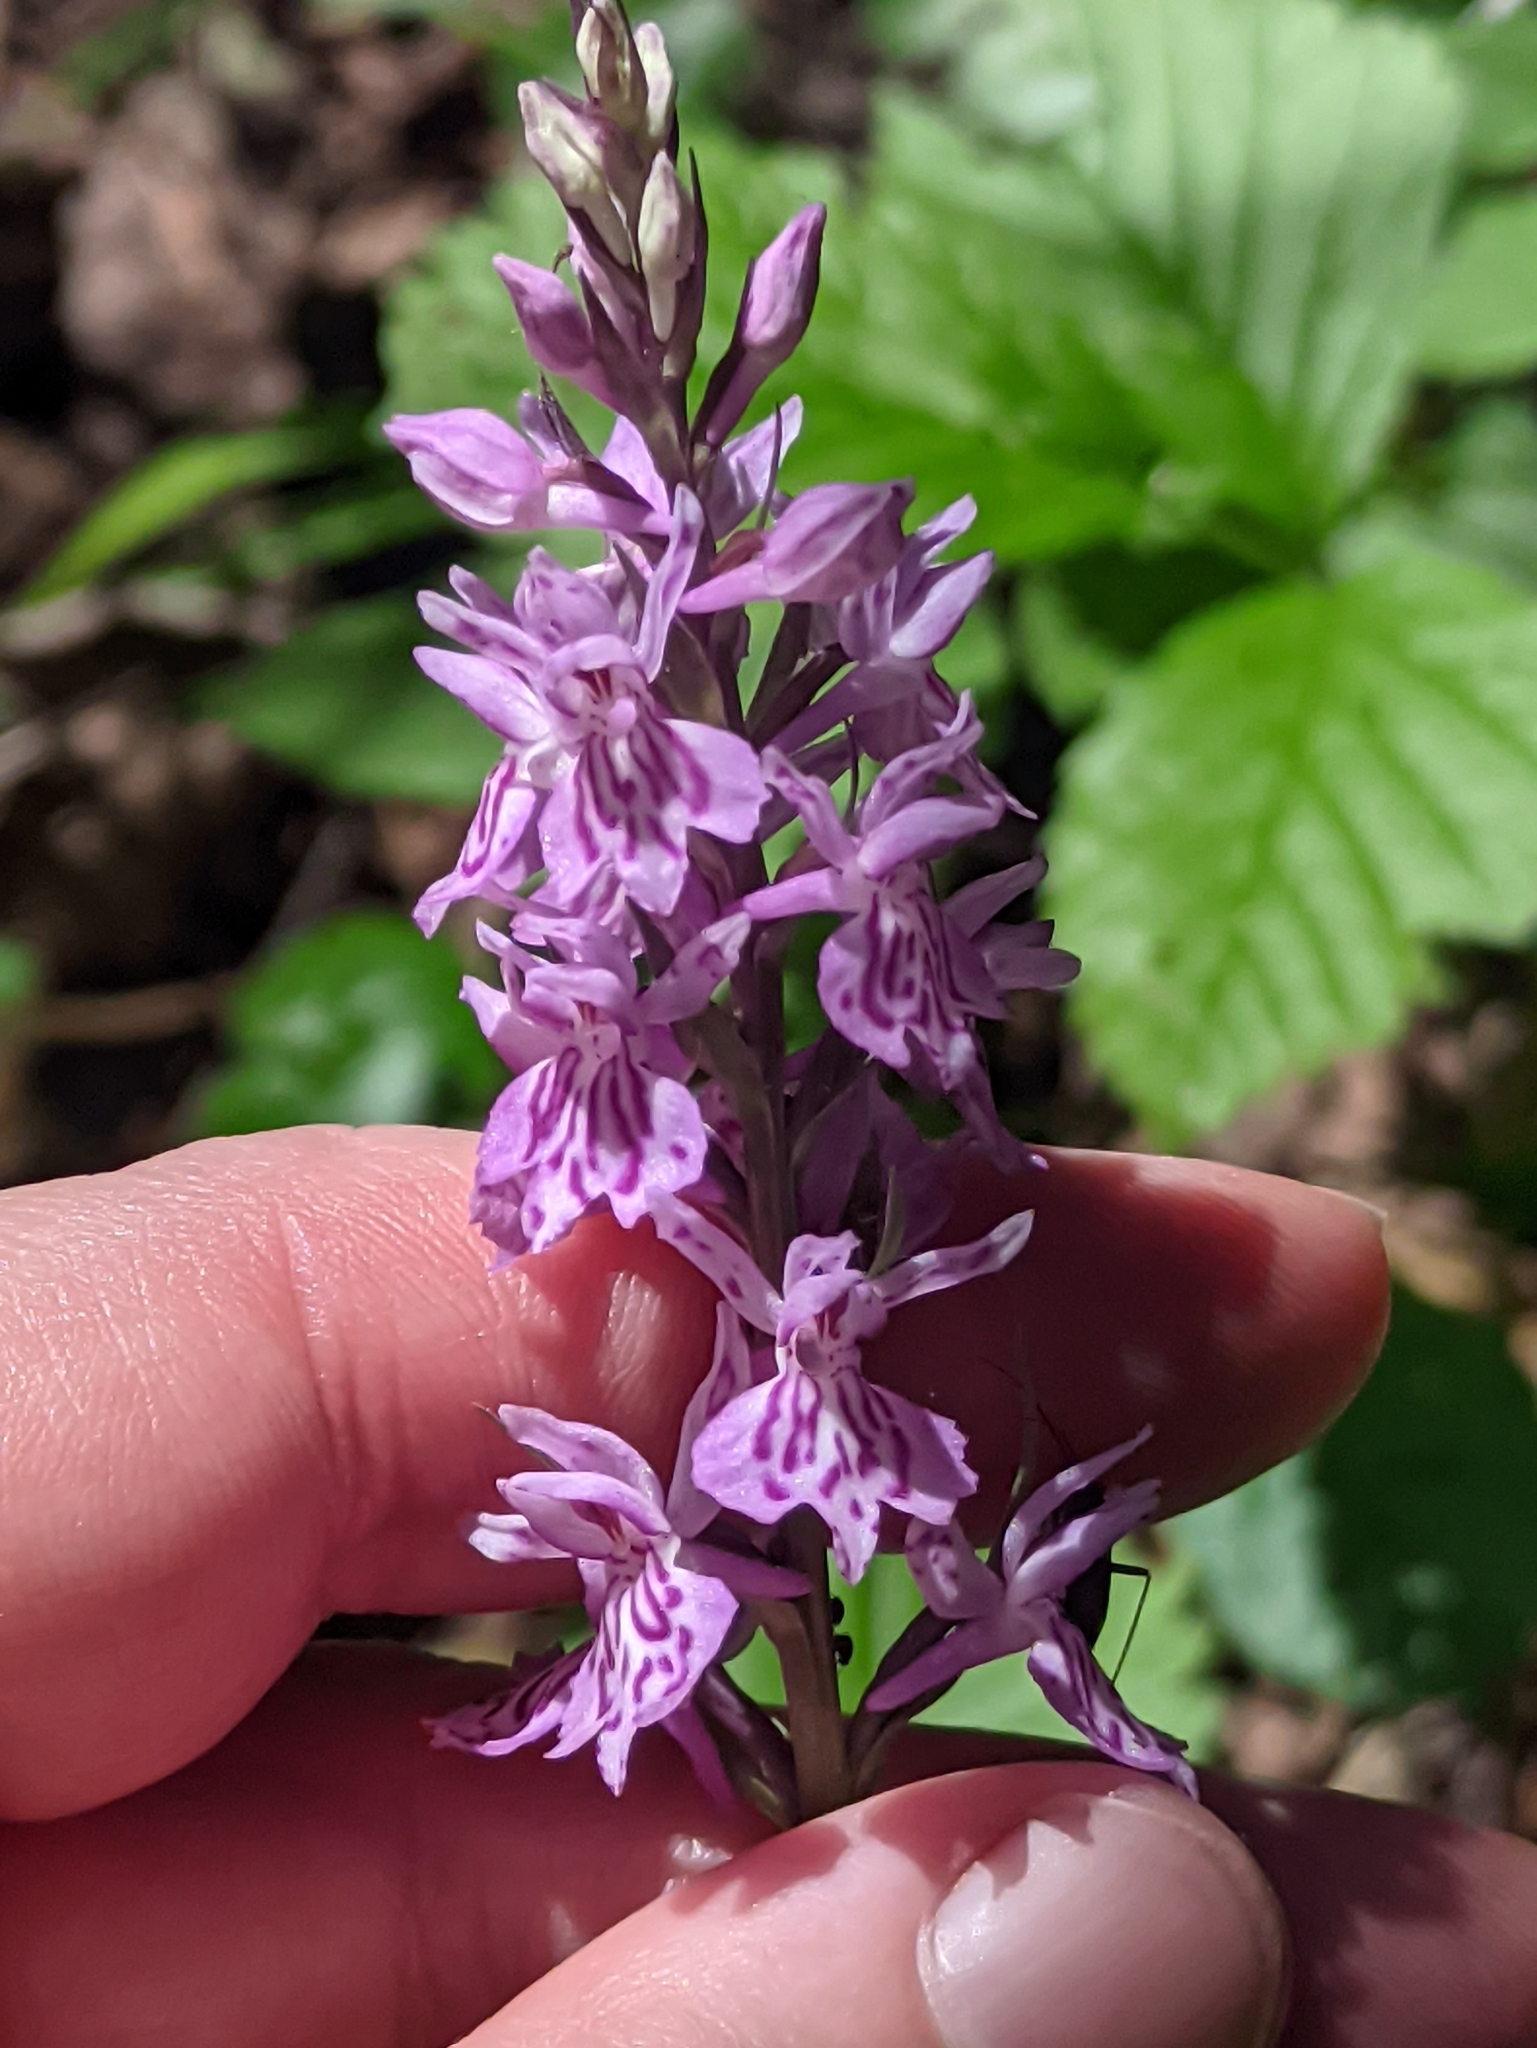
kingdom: Plantae
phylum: Tracheophyta
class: Liliopsida
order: Asparagales
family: Orchidaceae
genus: Dactylorhiza
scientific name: Dactylorhiza maculata
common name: Heath spotted-orchid
